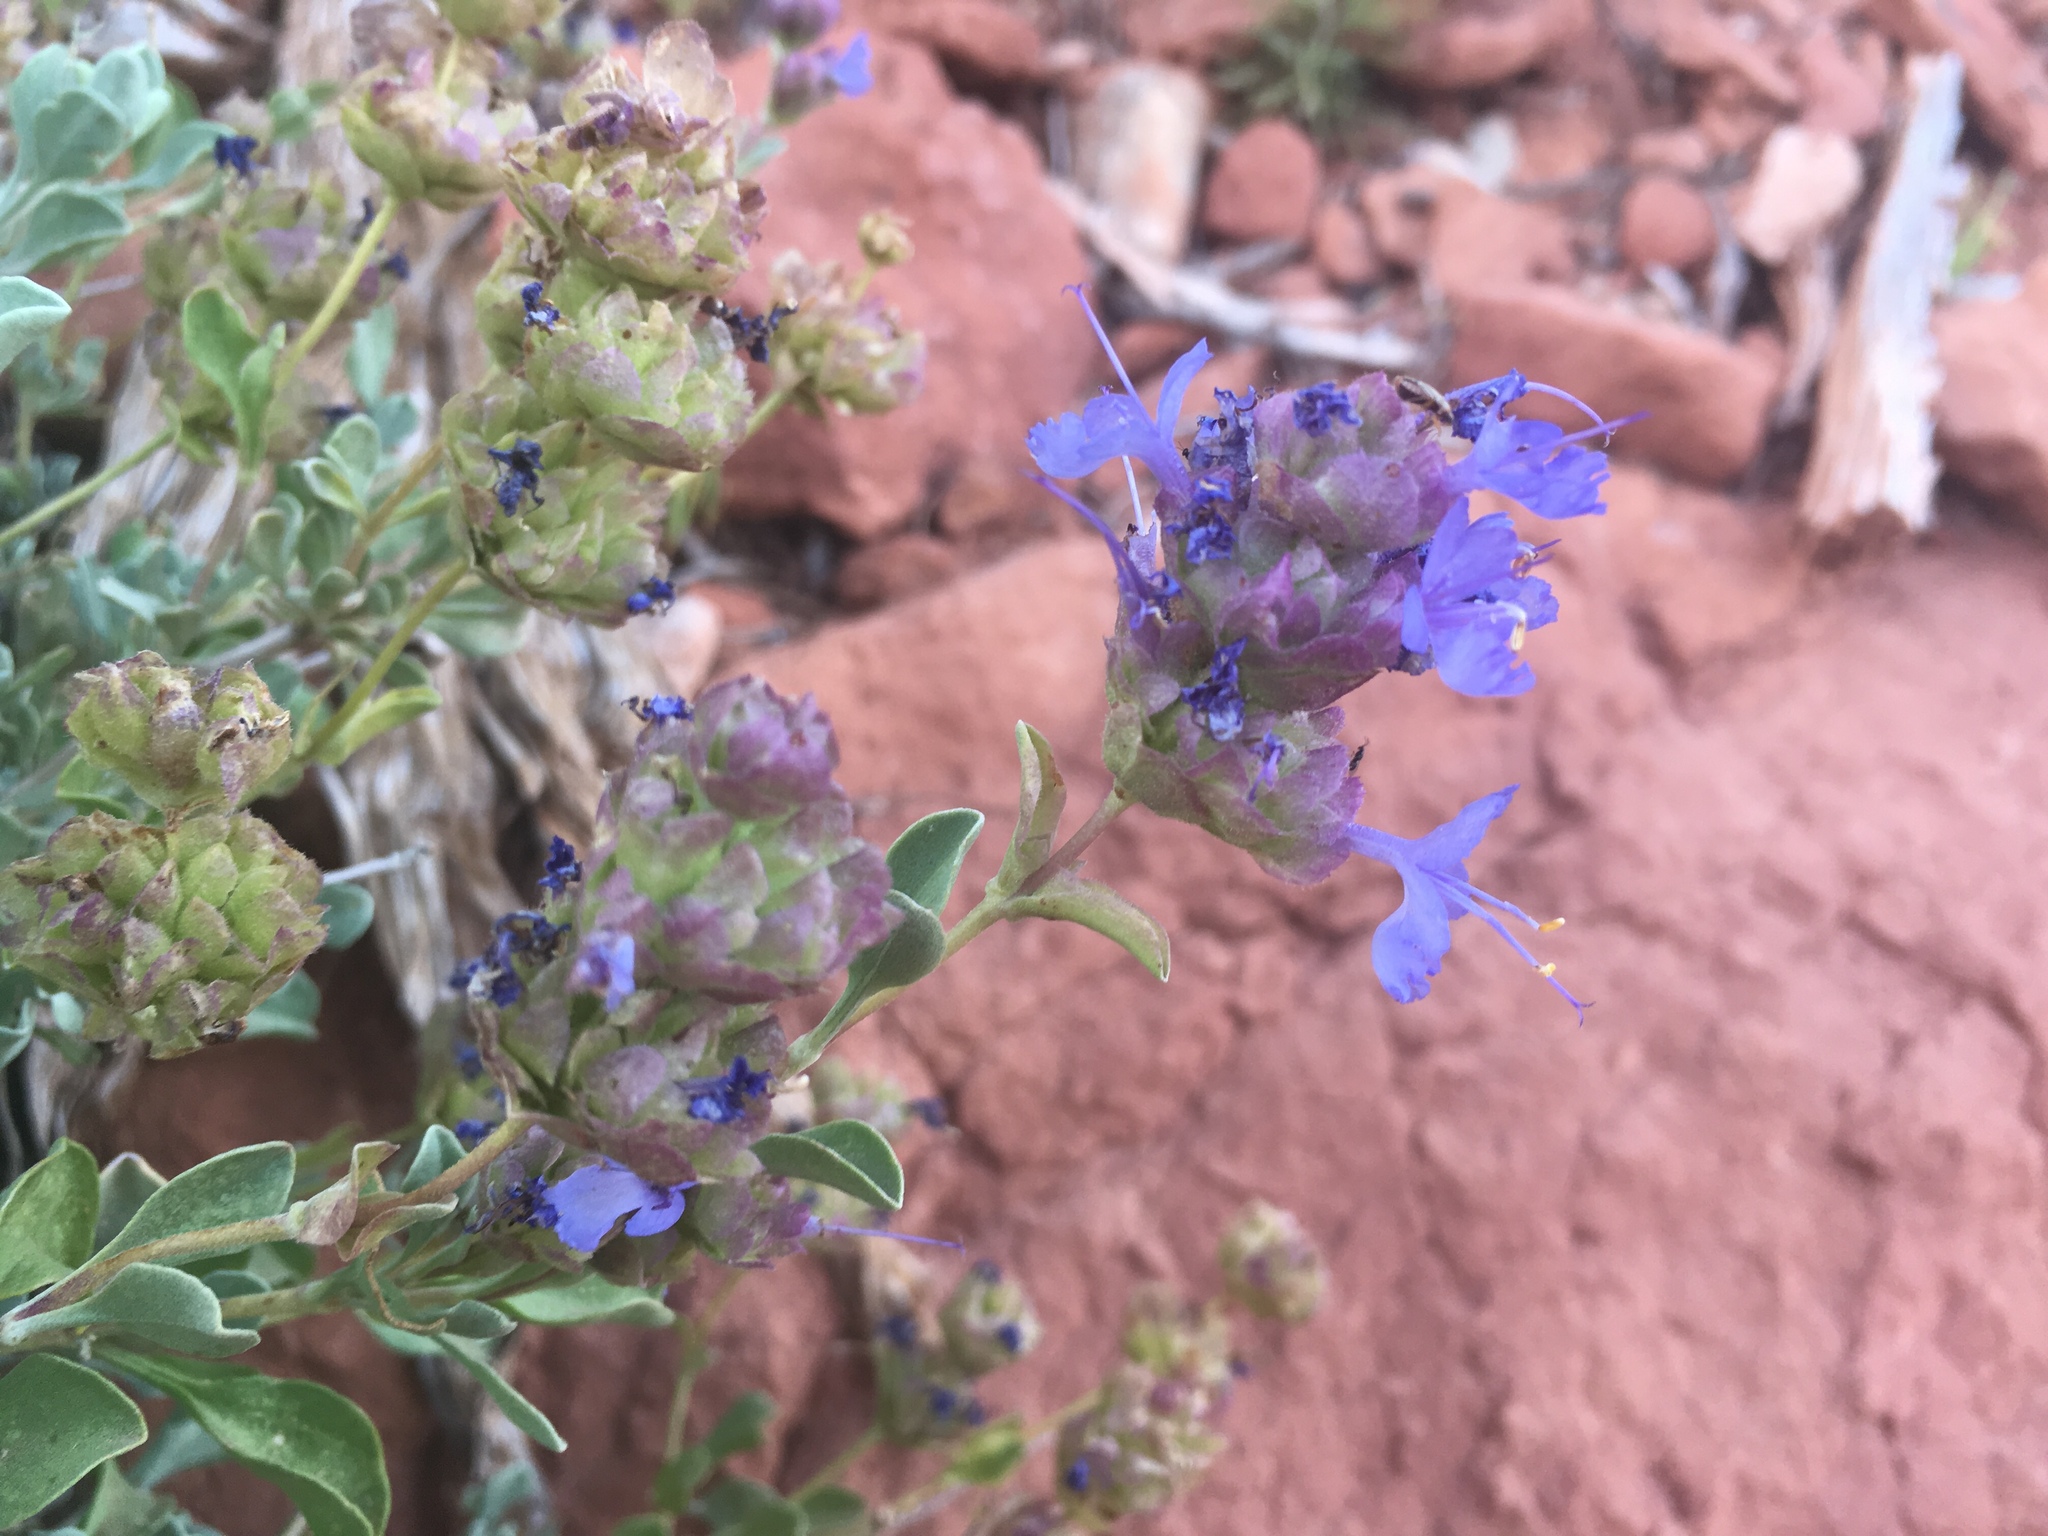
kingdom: Plantae
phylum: Tracheophyta
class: Magnoliopsida
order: Lamiales
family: Lamiaceae
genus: Salvia
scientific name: Salvia dorrii
